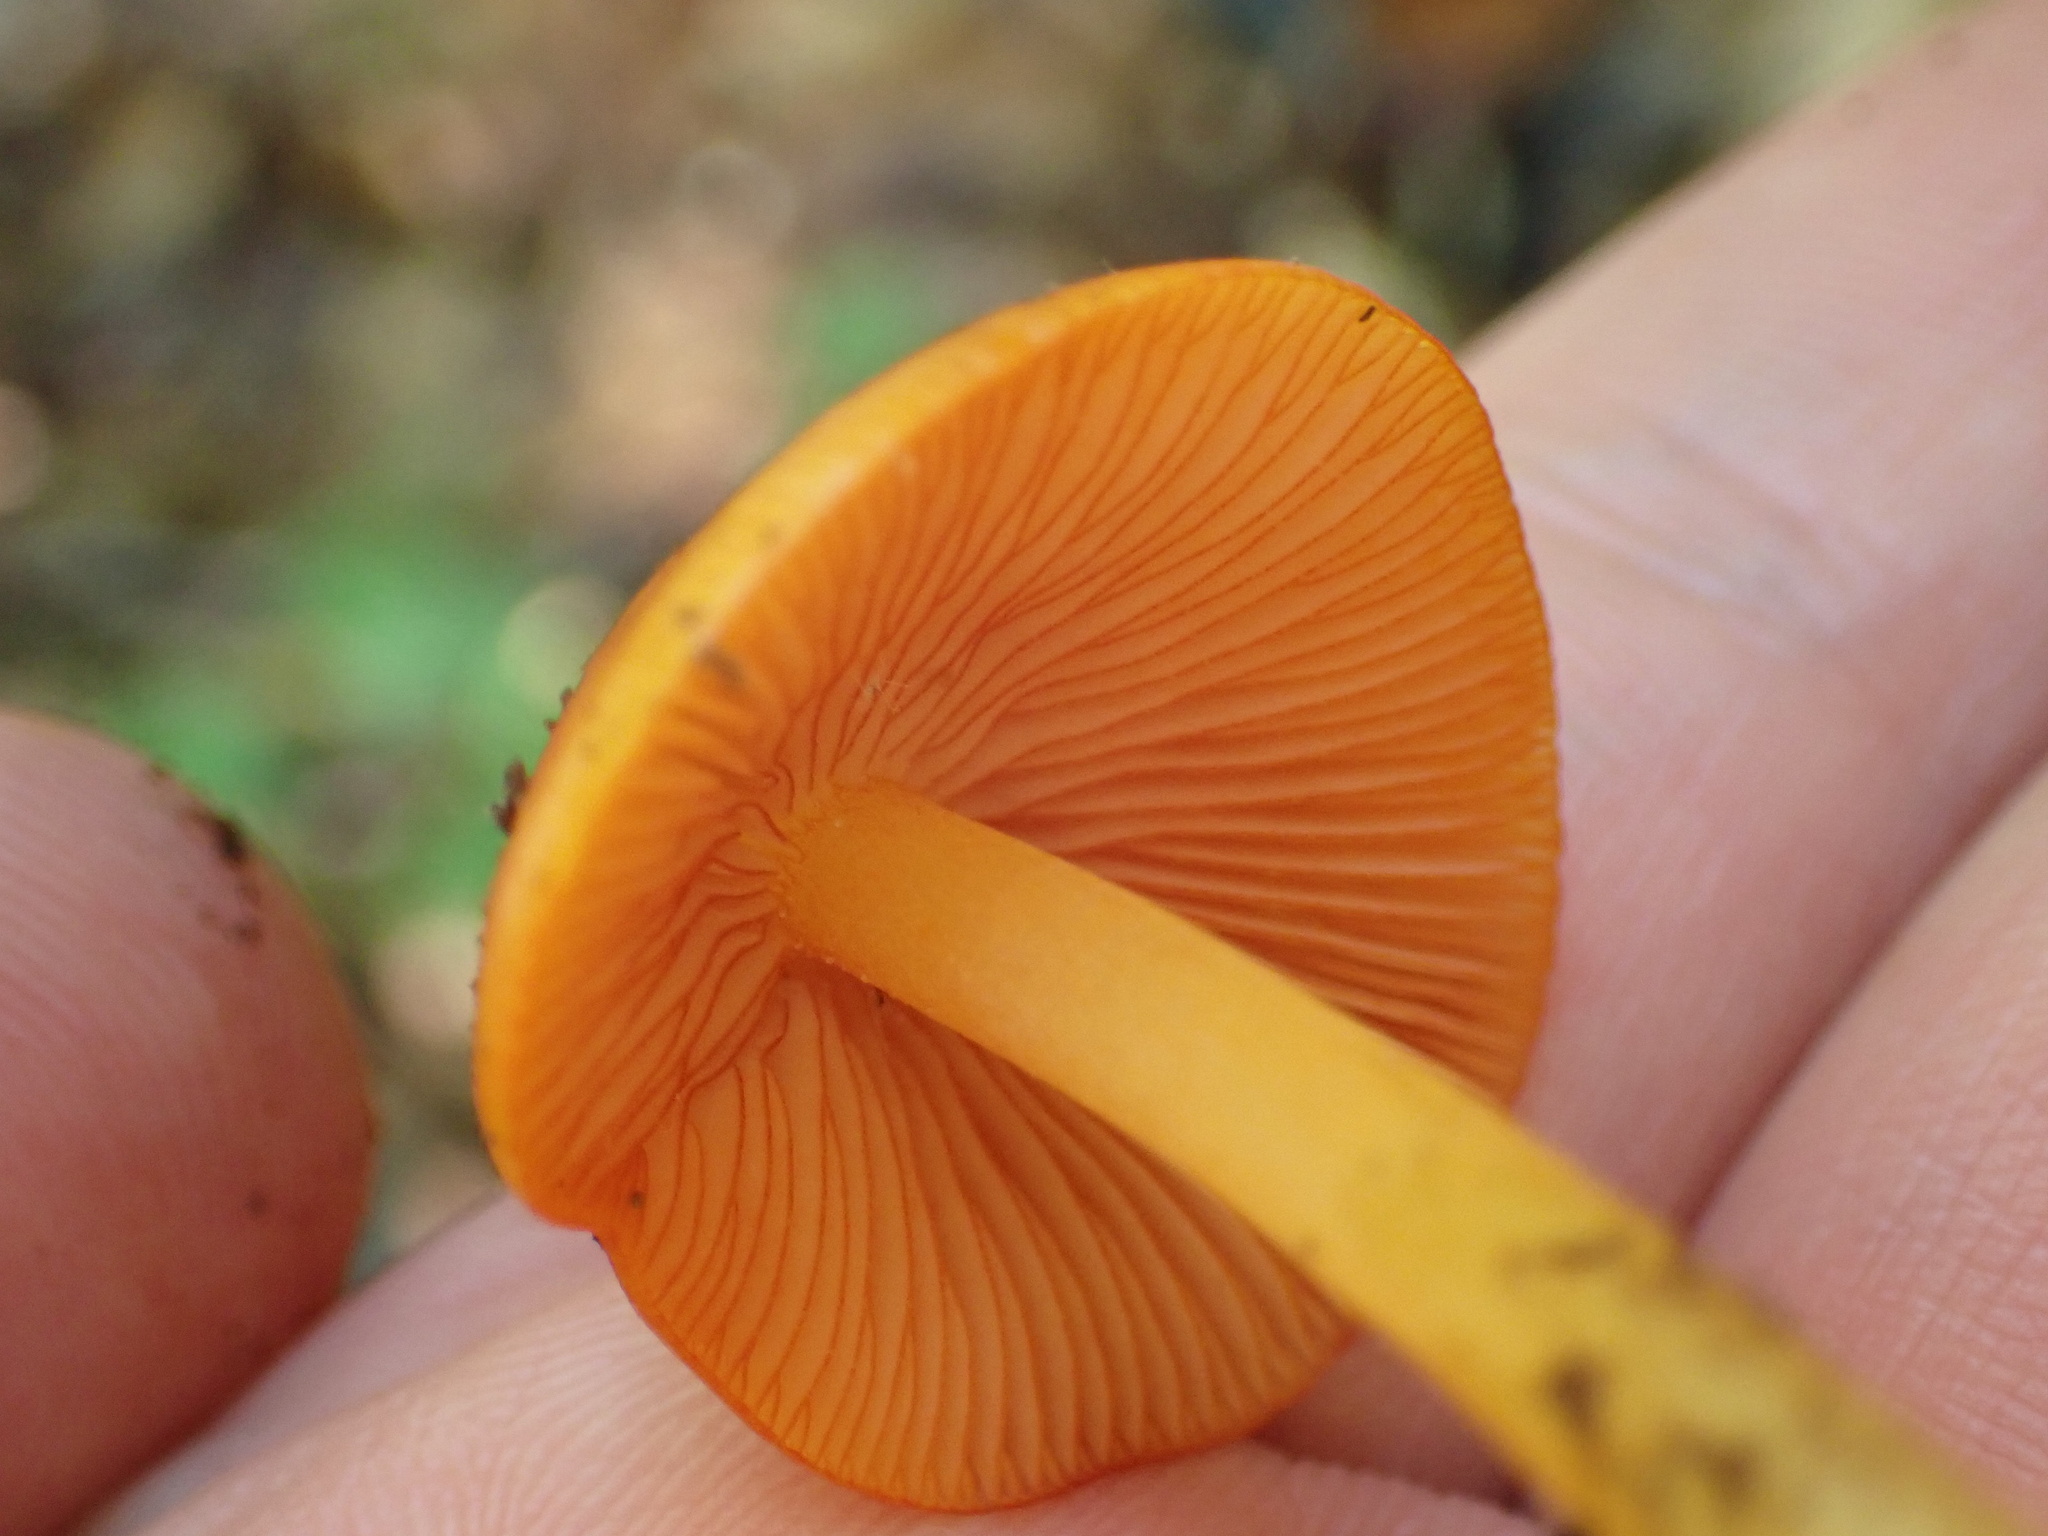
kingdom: Fungi
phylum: Basidiomycota
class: Agaricomycetes
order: Agaricales
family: Mycenaceae
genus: Mycena
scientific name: Mycena leaiana
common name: Orange mycena
